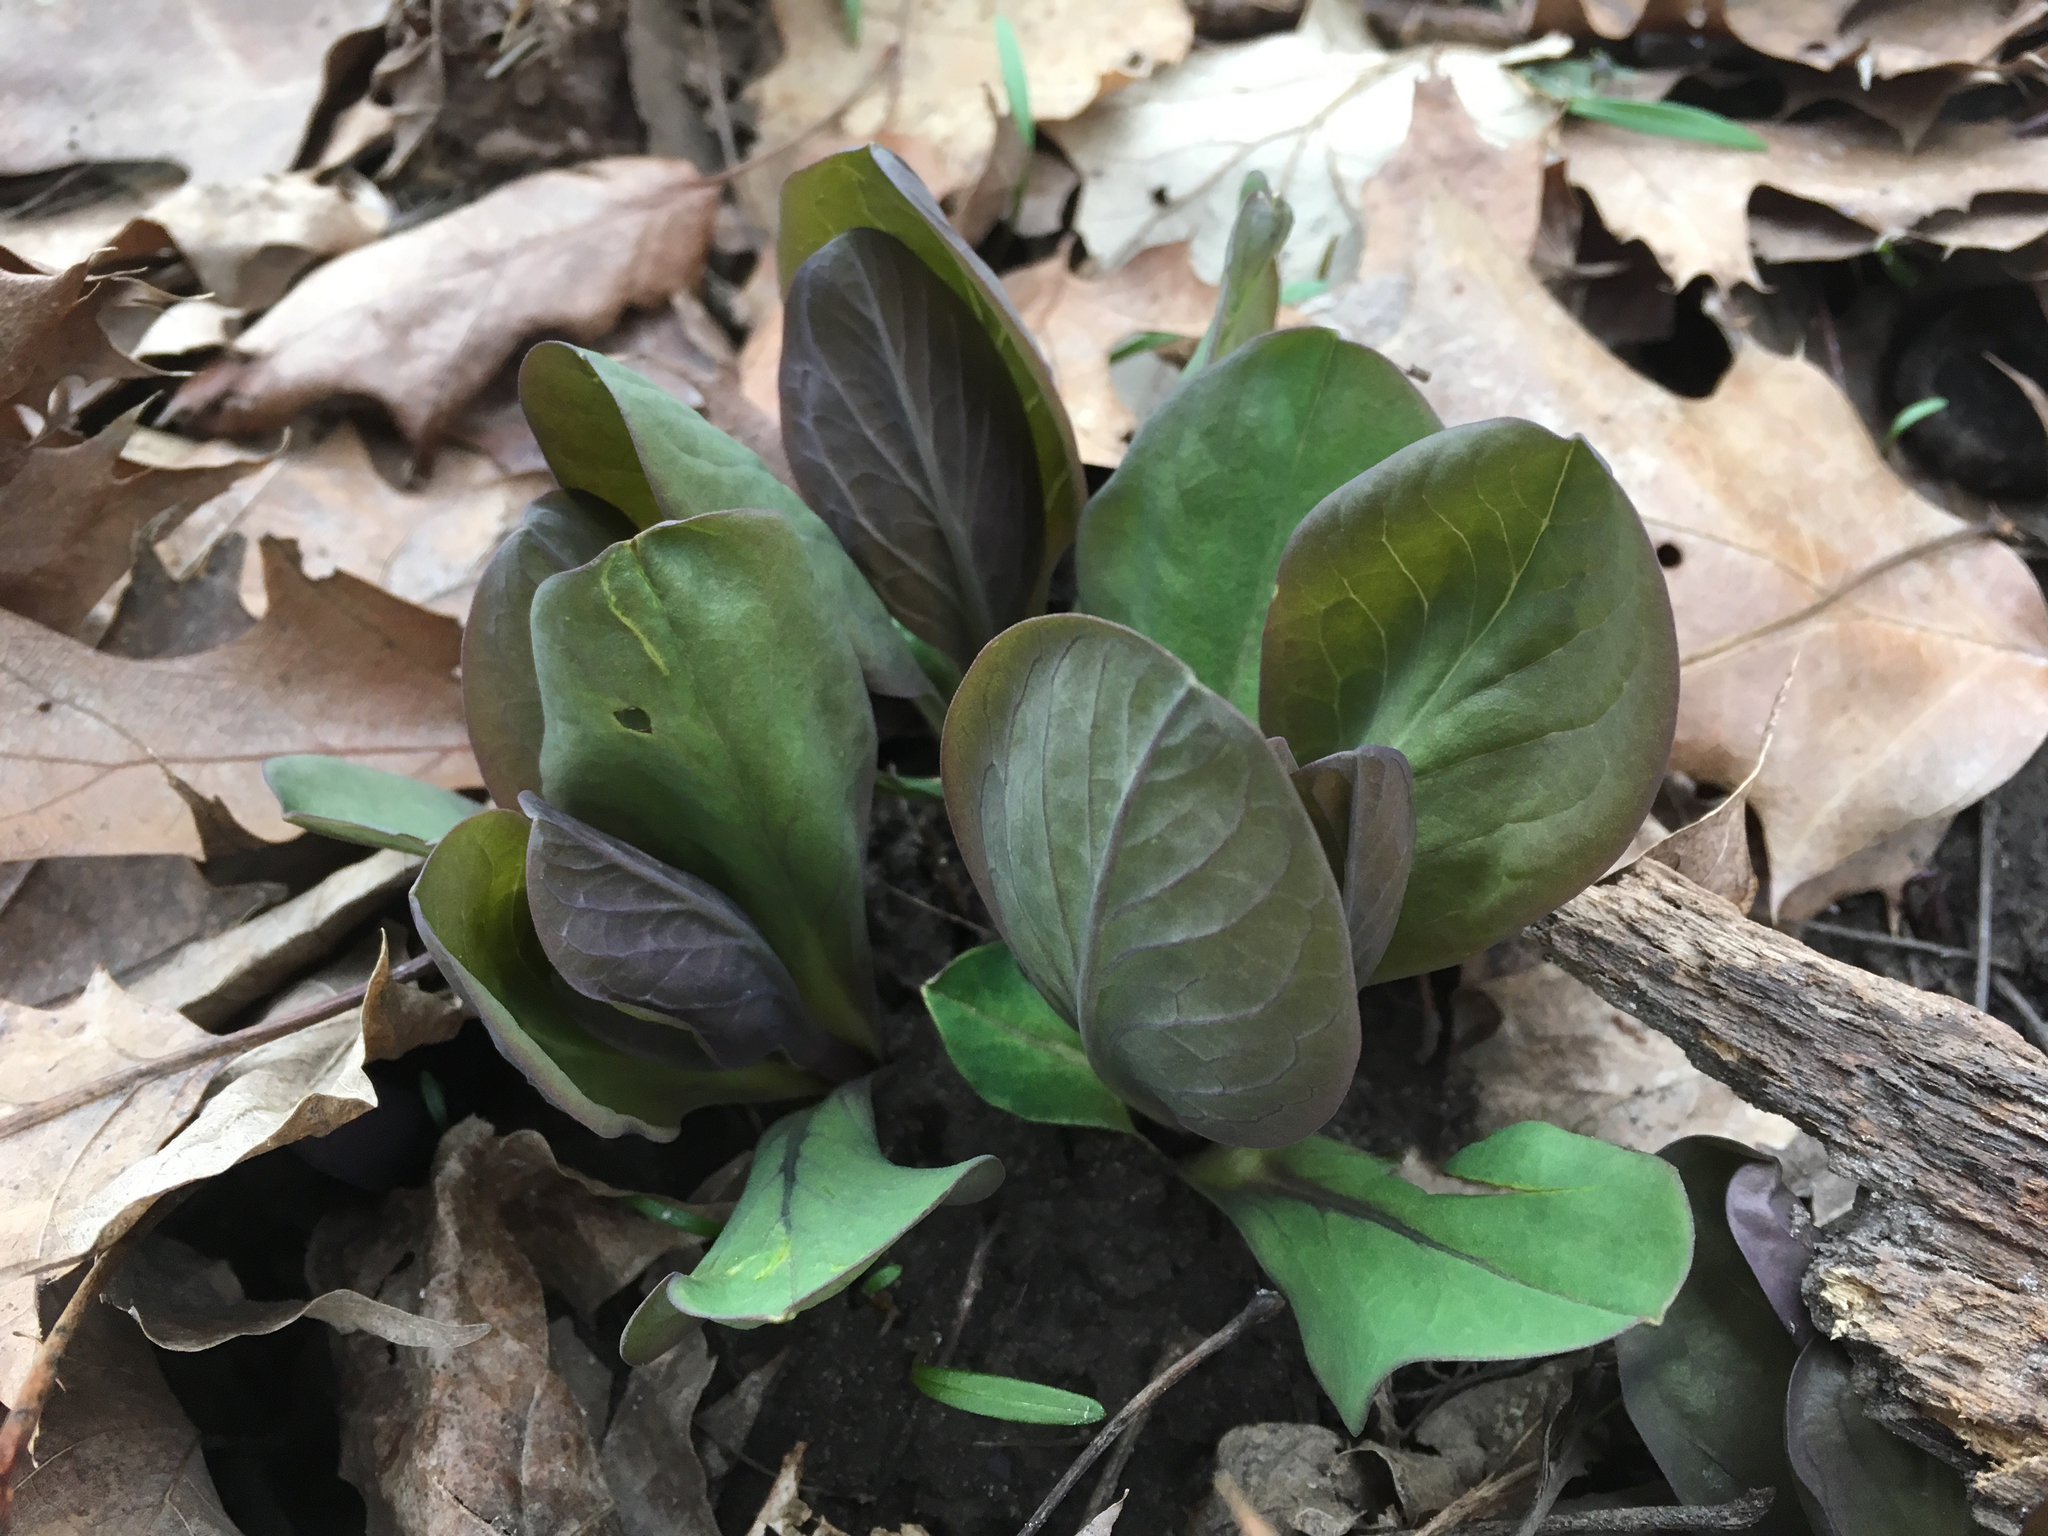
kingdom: Plantae
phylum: Tracheophyta
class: Magnoliopsida
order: Boraginales
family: Boraginaceae
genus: Mertensia
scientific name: Mertensia virginica
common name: Virginia bluebells
